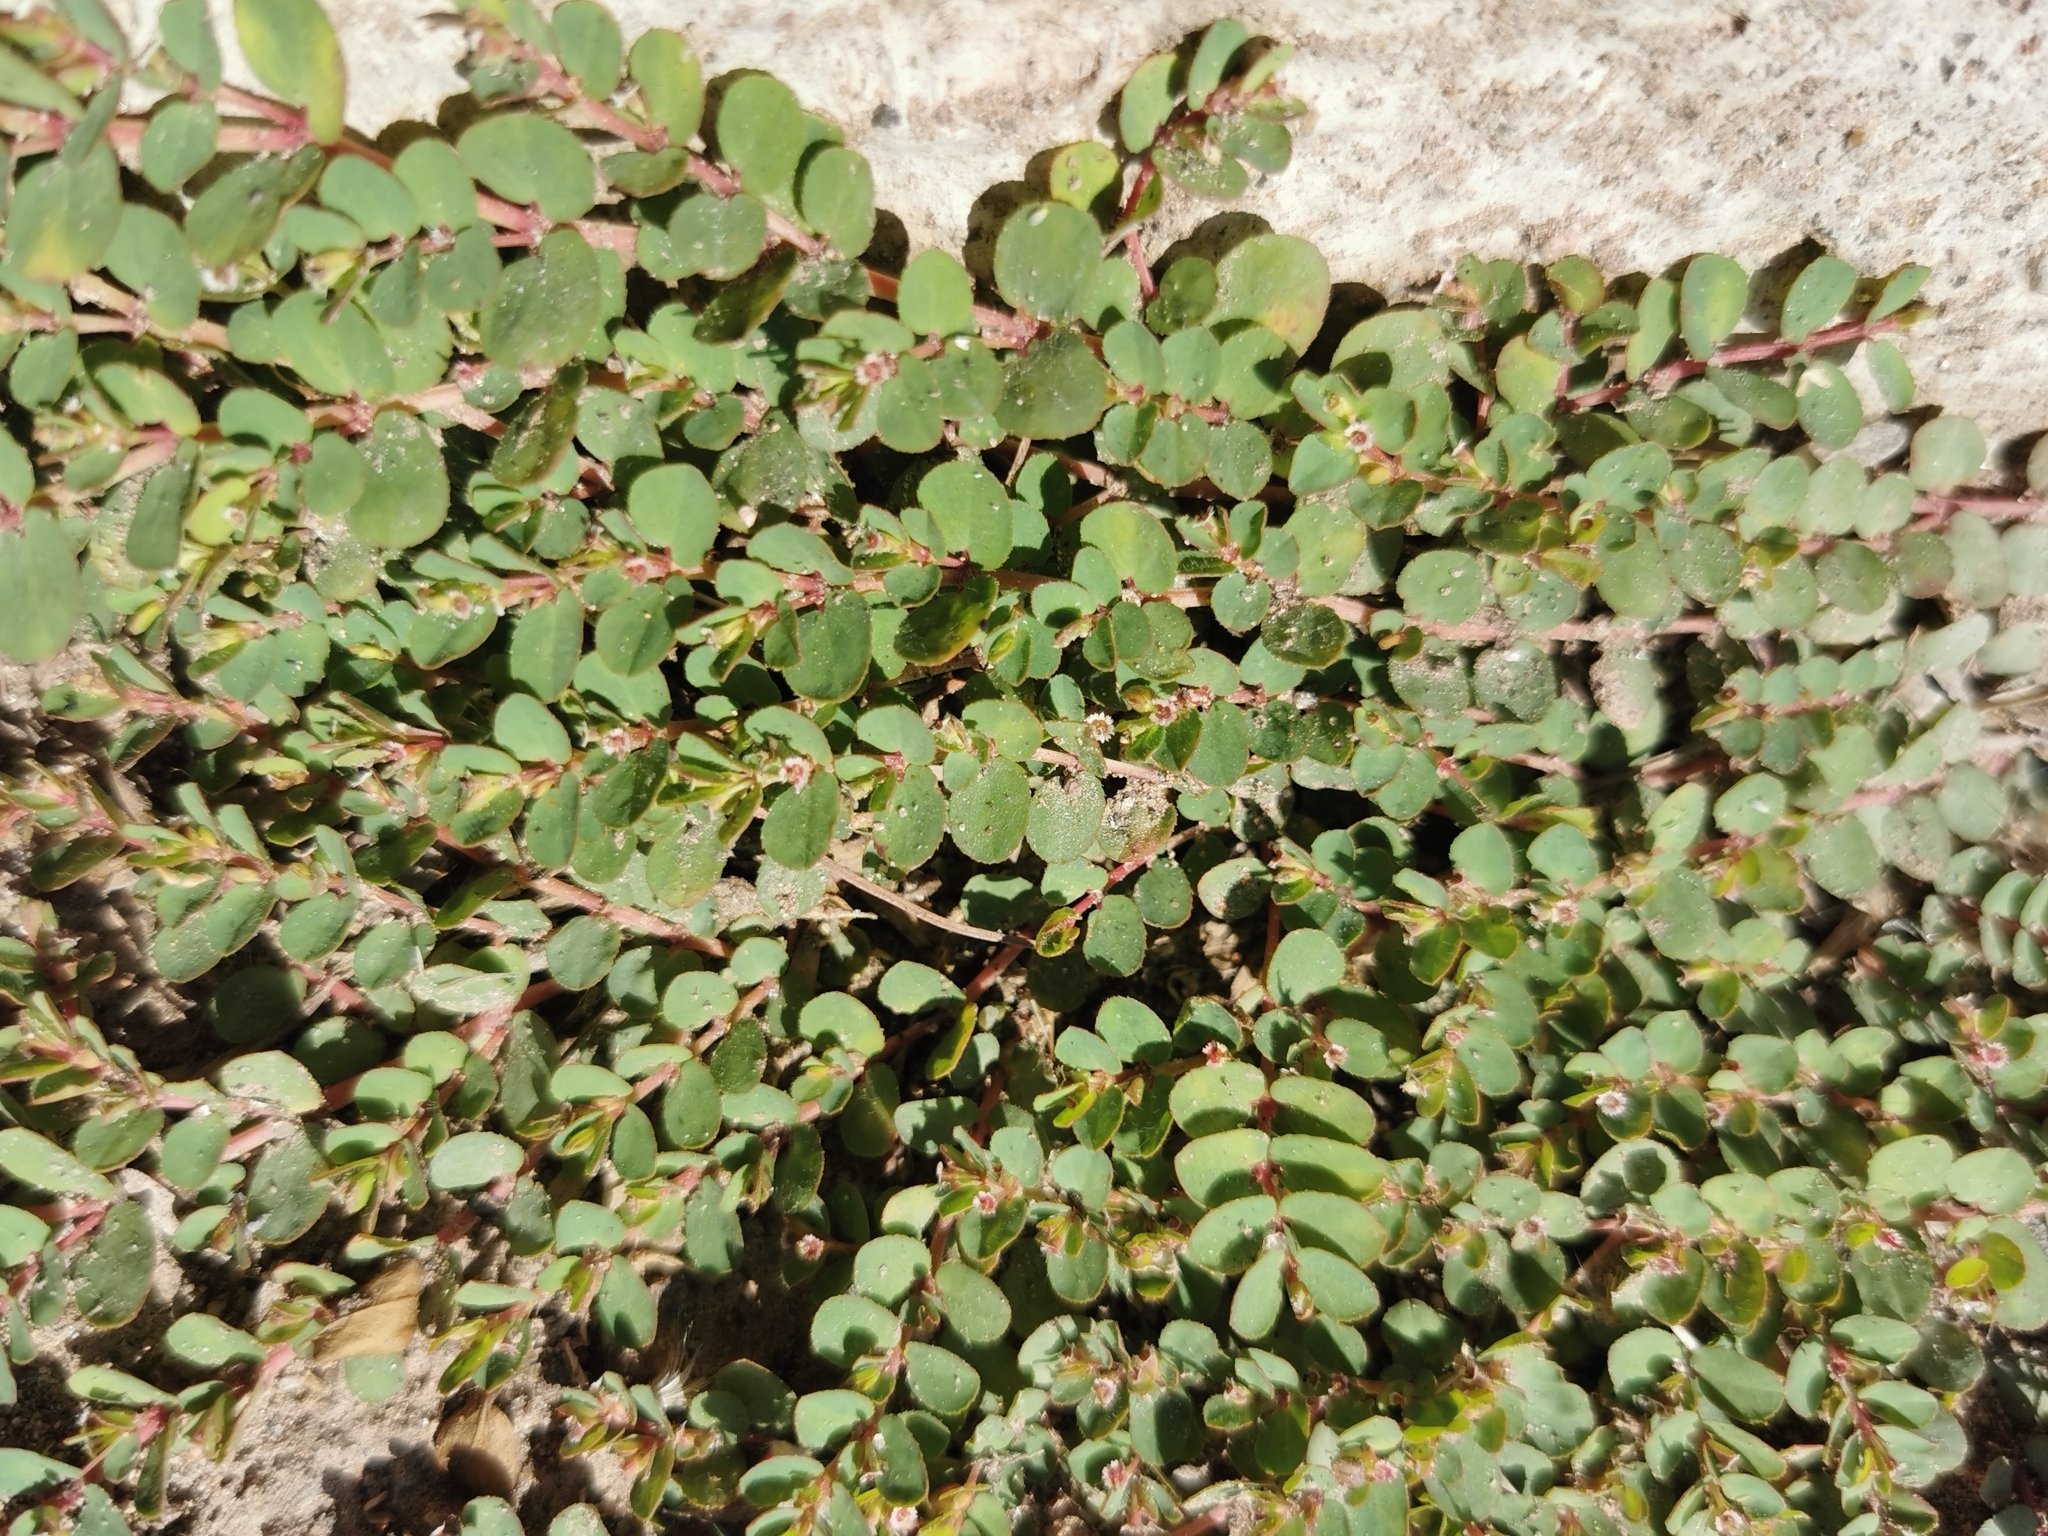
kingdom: Plantae
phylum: Tracheophyta
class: Magnoliopsida
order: Malpighiales
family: Euphorbiaceae
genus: Euphorbia
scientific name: Euphorbia serpillifolia
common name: Thyme-leaf spurge
